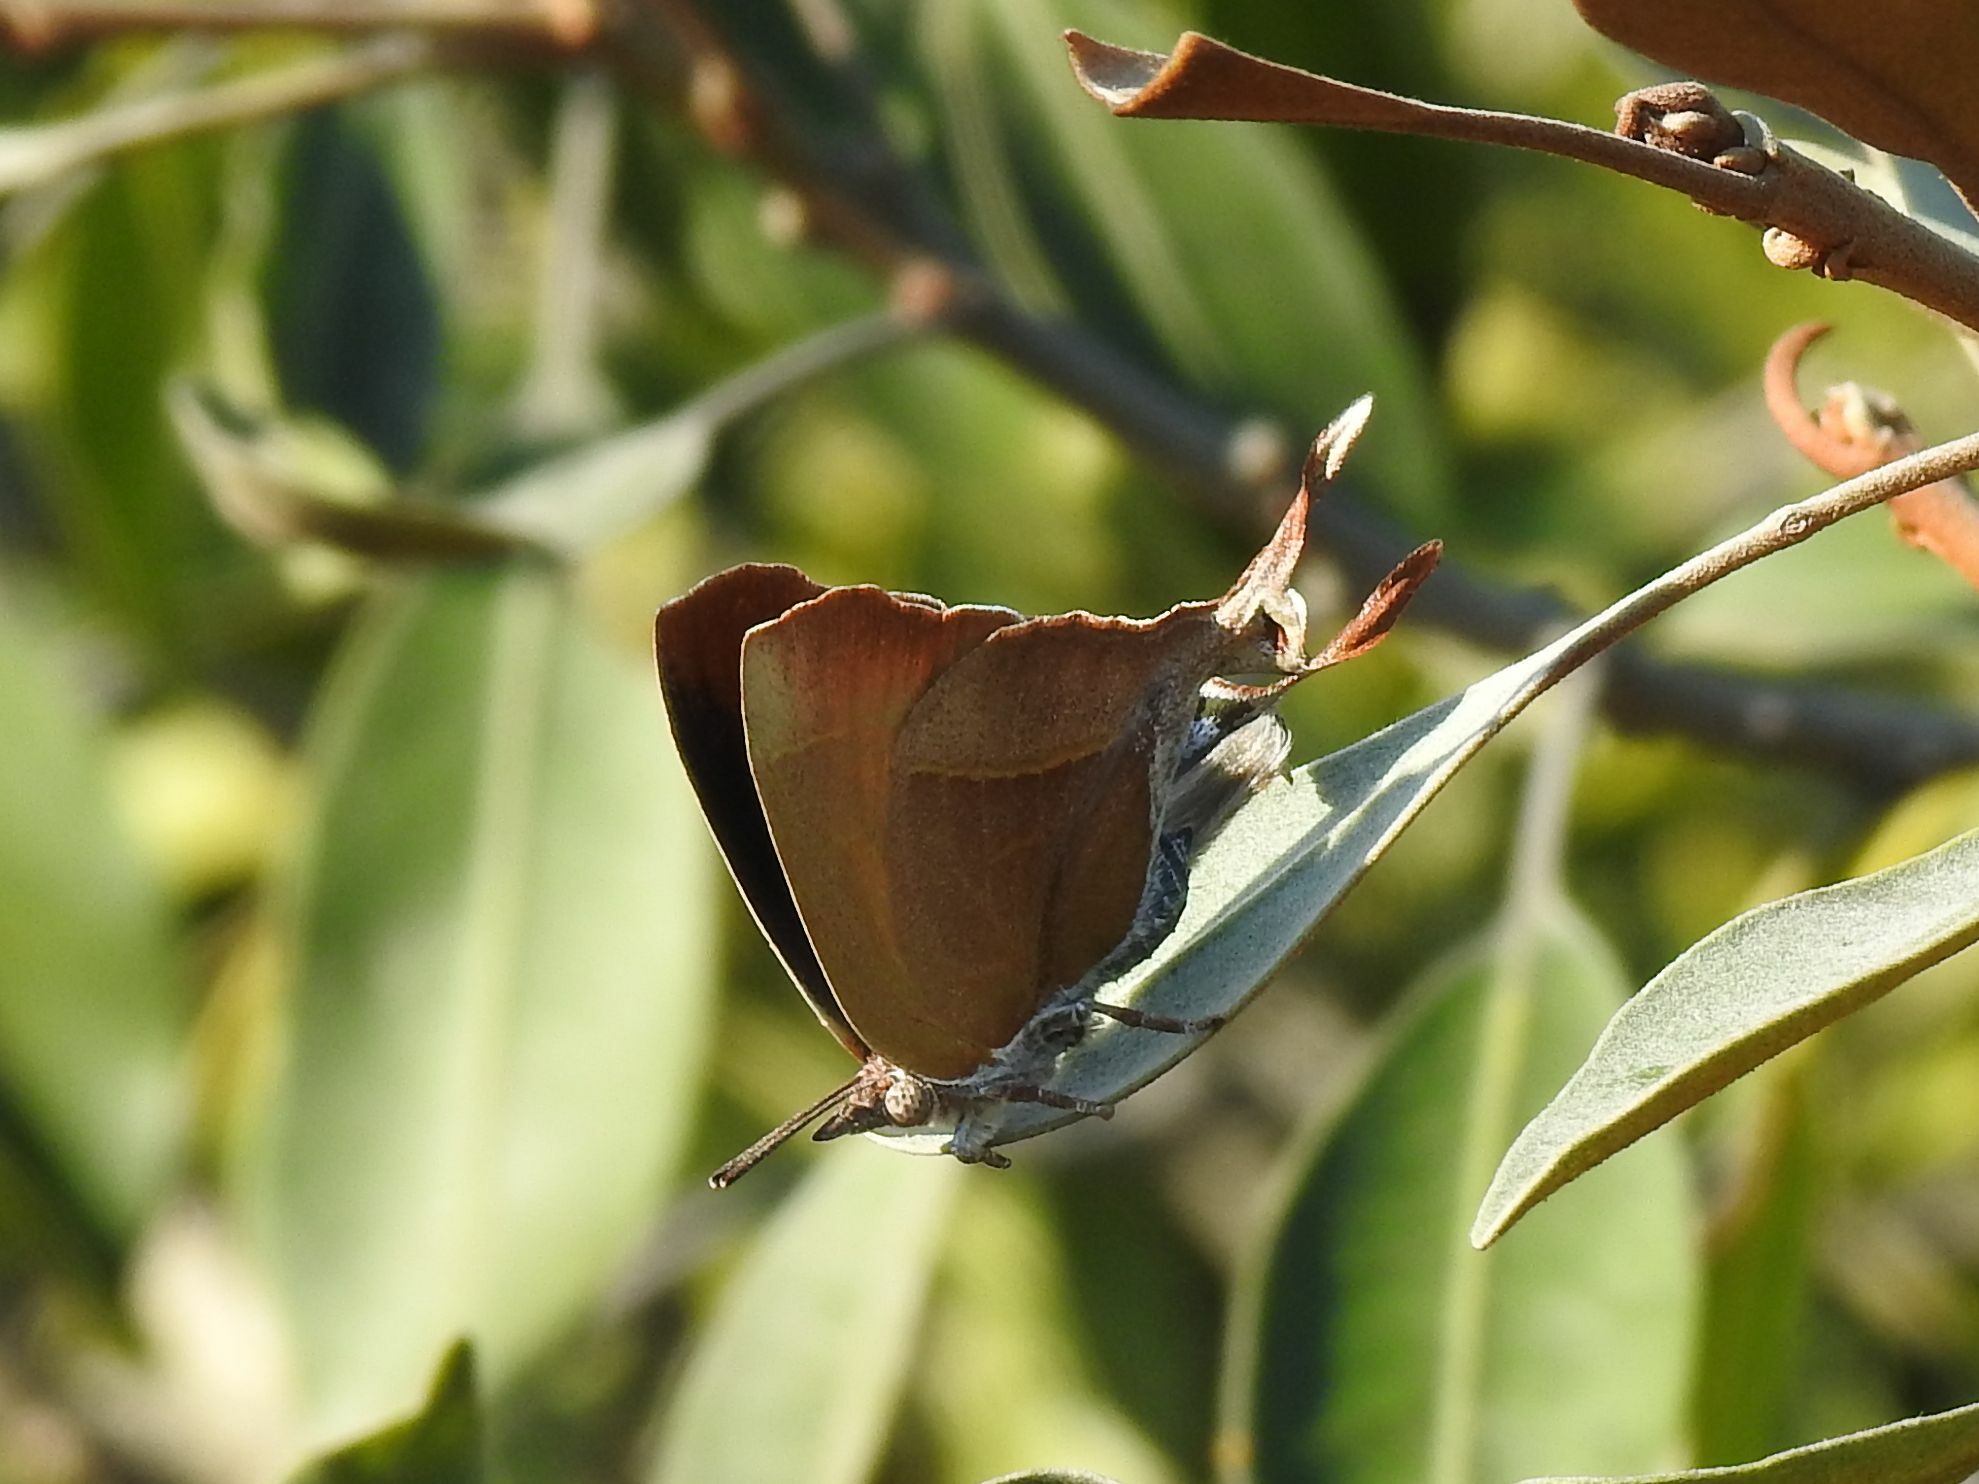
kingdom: Animalia
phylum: Arthropoda
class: Insecta
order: Lepidoptera
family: Lycaenidae
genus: Myrina
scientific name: Myrina silenus
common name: Amber fig-tree blue
